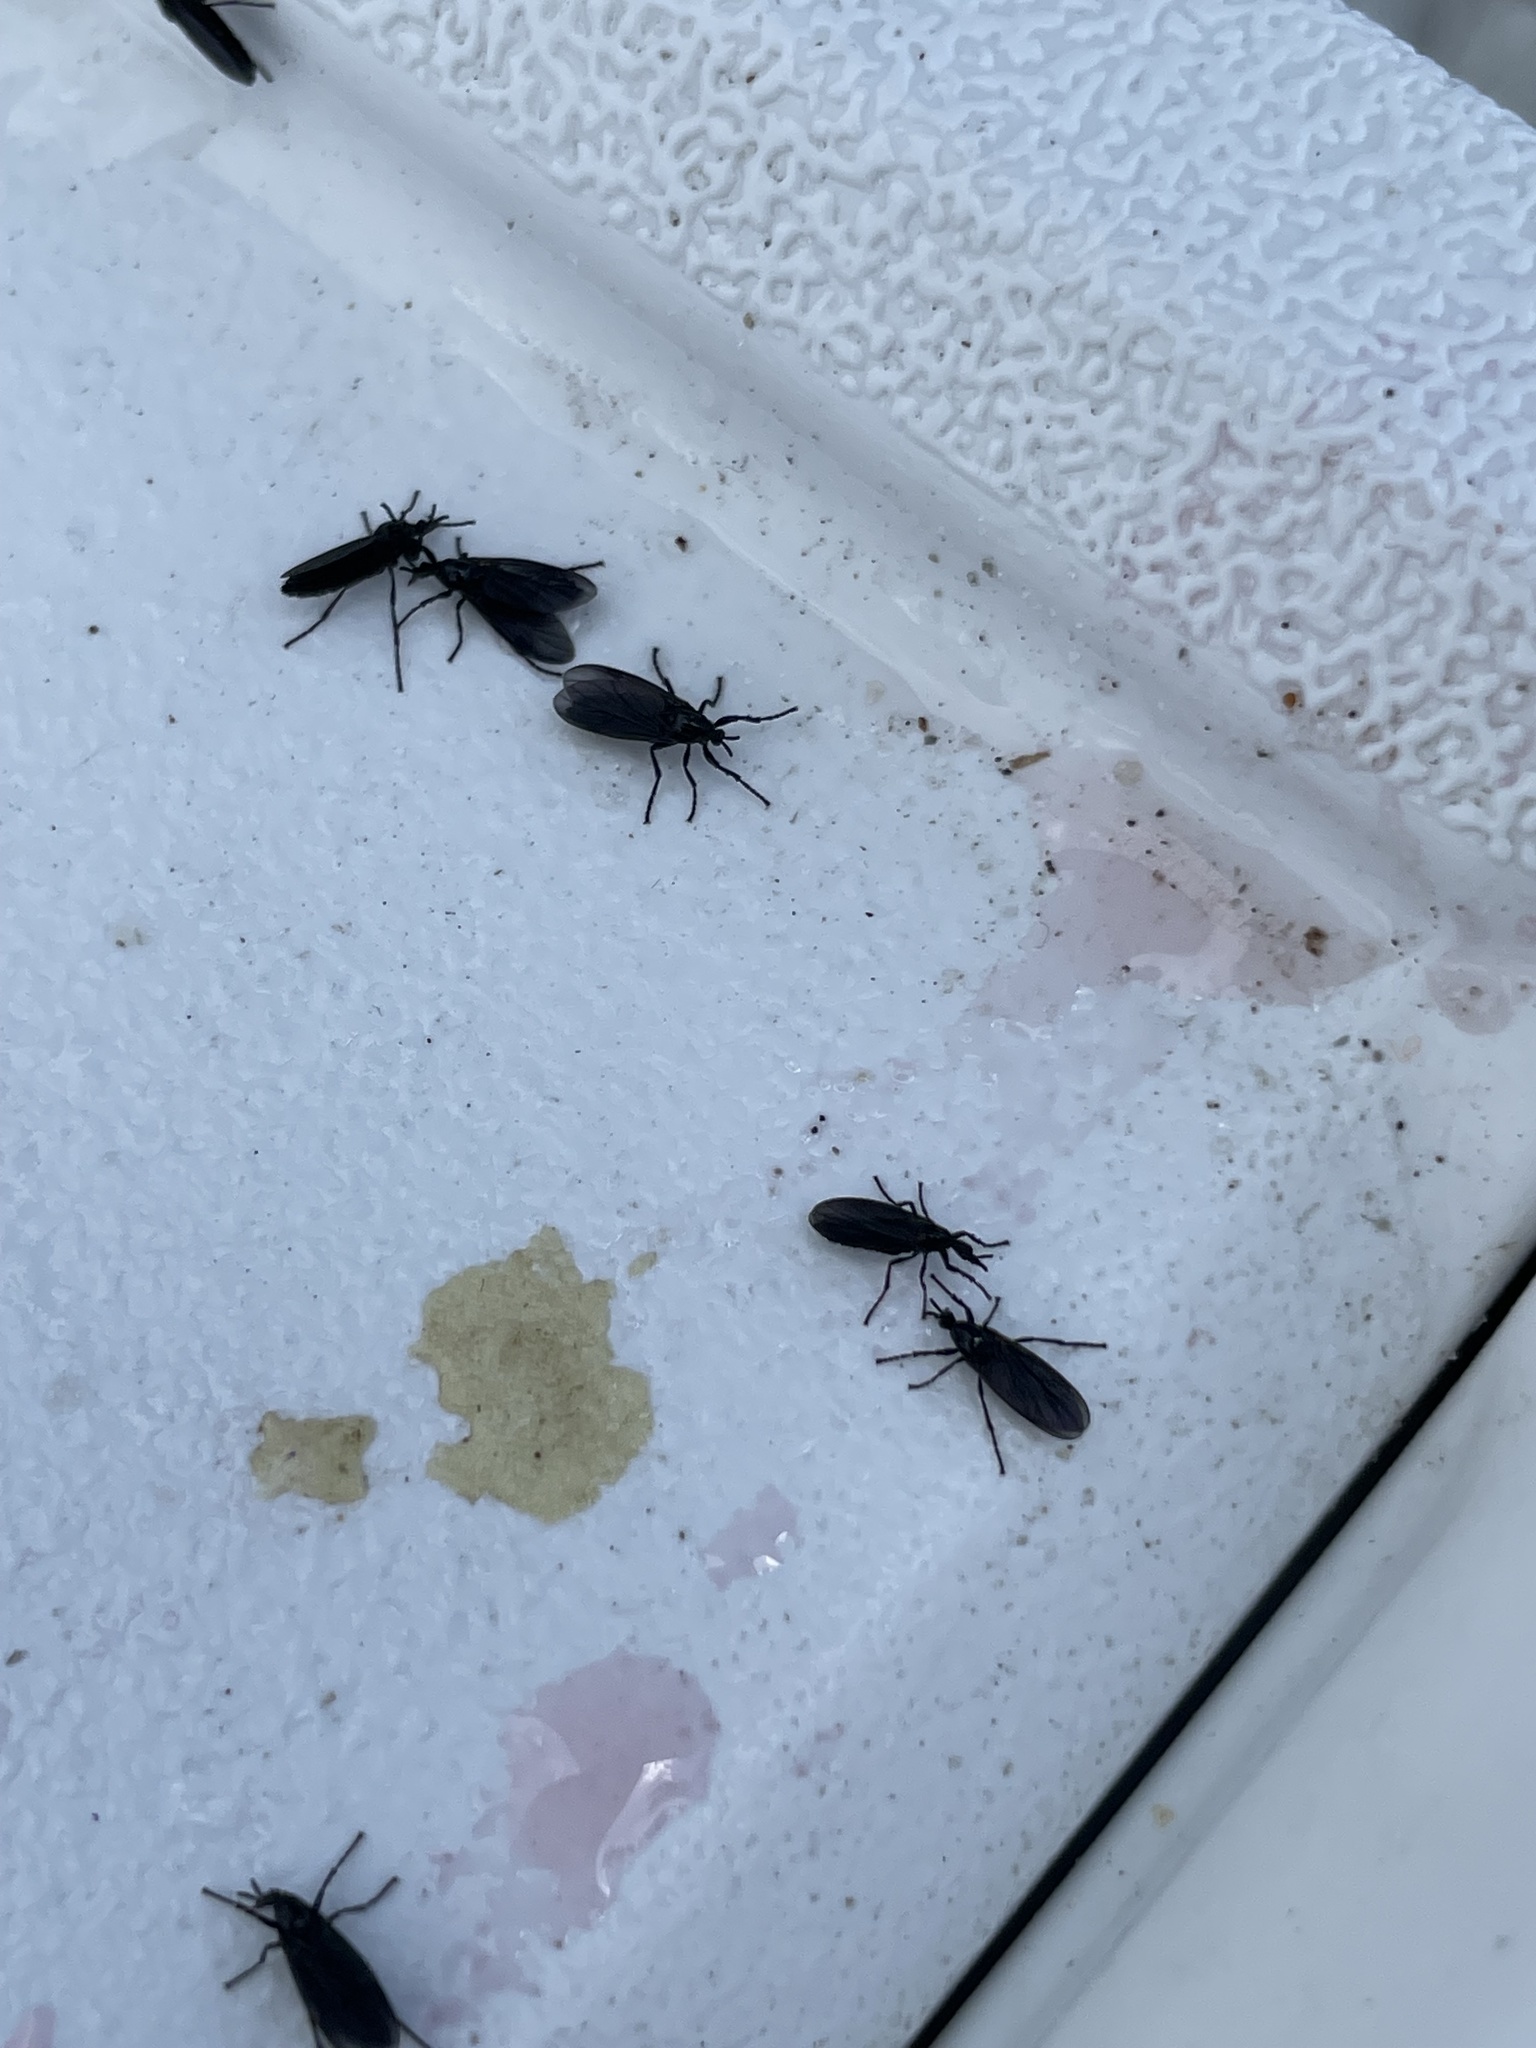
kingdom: Animalia
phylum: Arthropoda
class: Insecta
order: Diptera
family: Bibionidae
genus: Dilophus
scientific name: Dilophus orbatus
